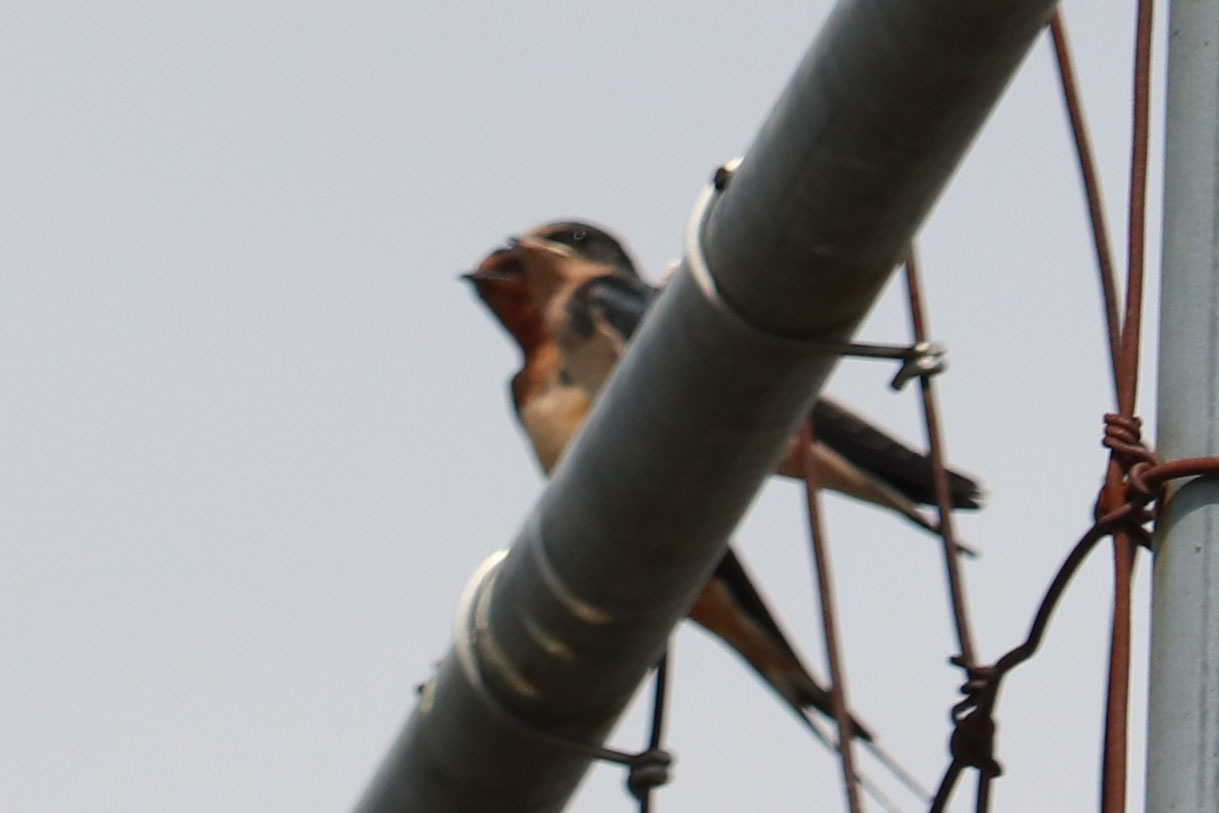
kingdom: Animalia
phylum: Chordata
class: Aves
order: Passeriformes
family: Hirundinidae
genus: Hirundo
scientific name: Hirundo rustica
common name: Barn swallow
